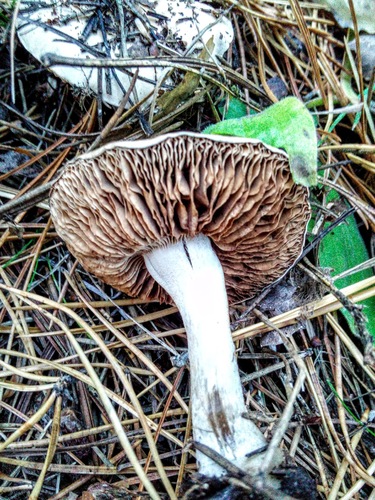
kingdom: Fungi
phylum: Basidiomycota
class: Agaricomycetes
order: Agaricales
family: Cortinariaceae
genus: Cortinarius
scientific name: Cortinarius
